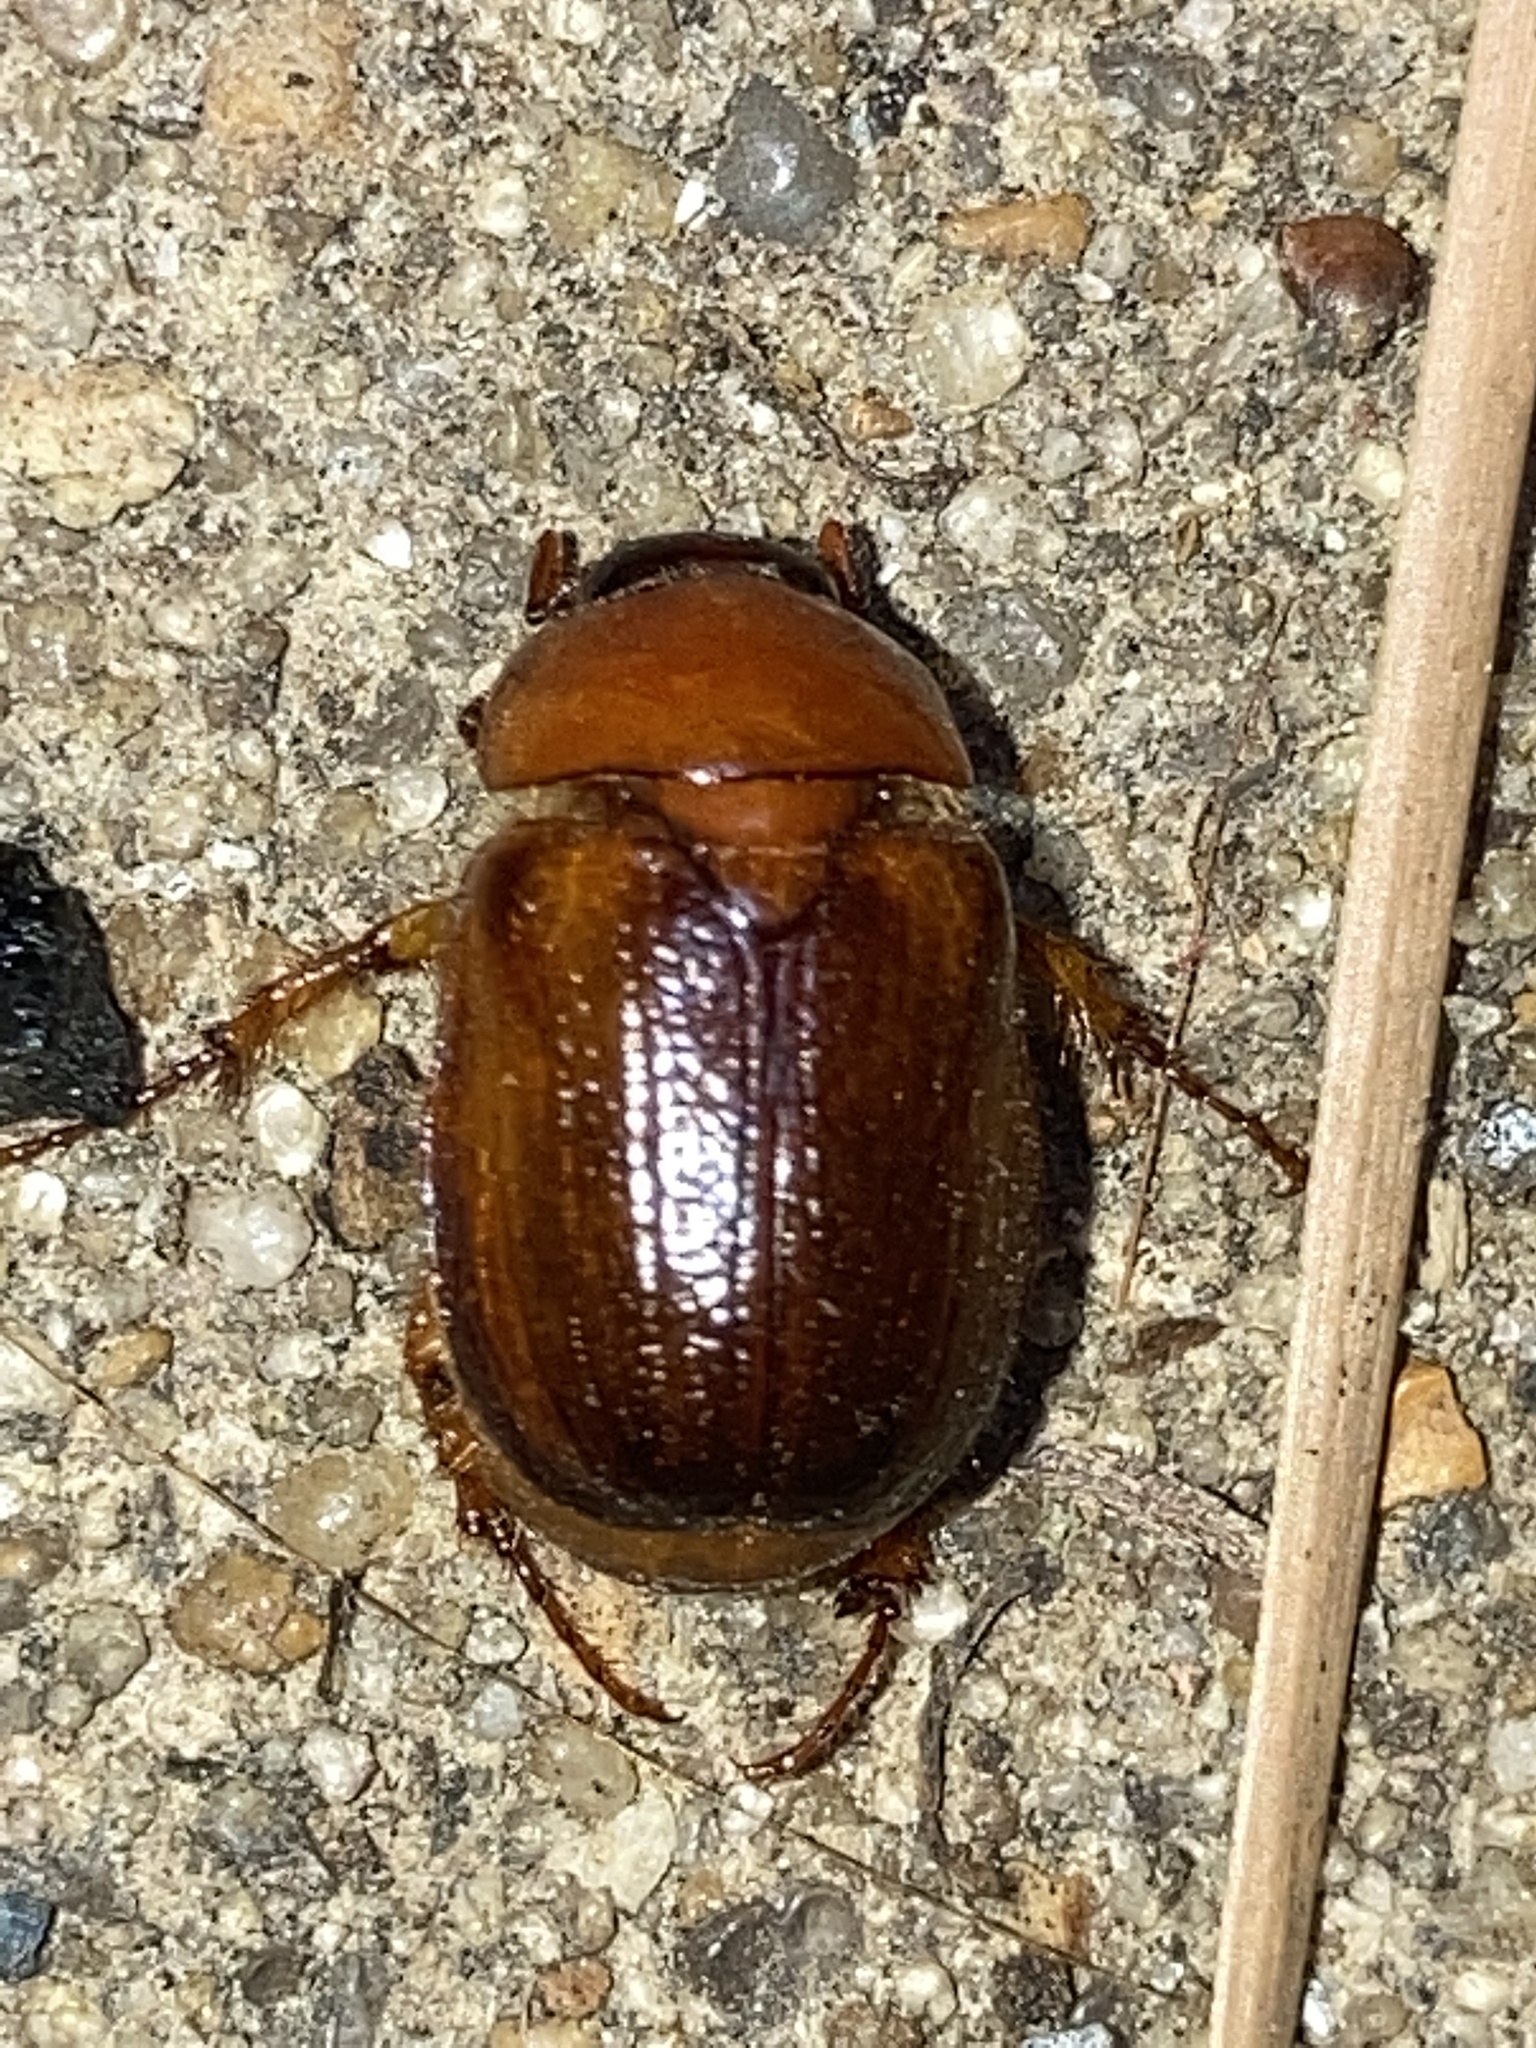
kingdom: Animalia
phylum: Arthropoda
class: Insecta
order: Coleoptera
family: Scarabaeidae
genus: Cyclocephala
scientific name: Cyclocephala robusta
